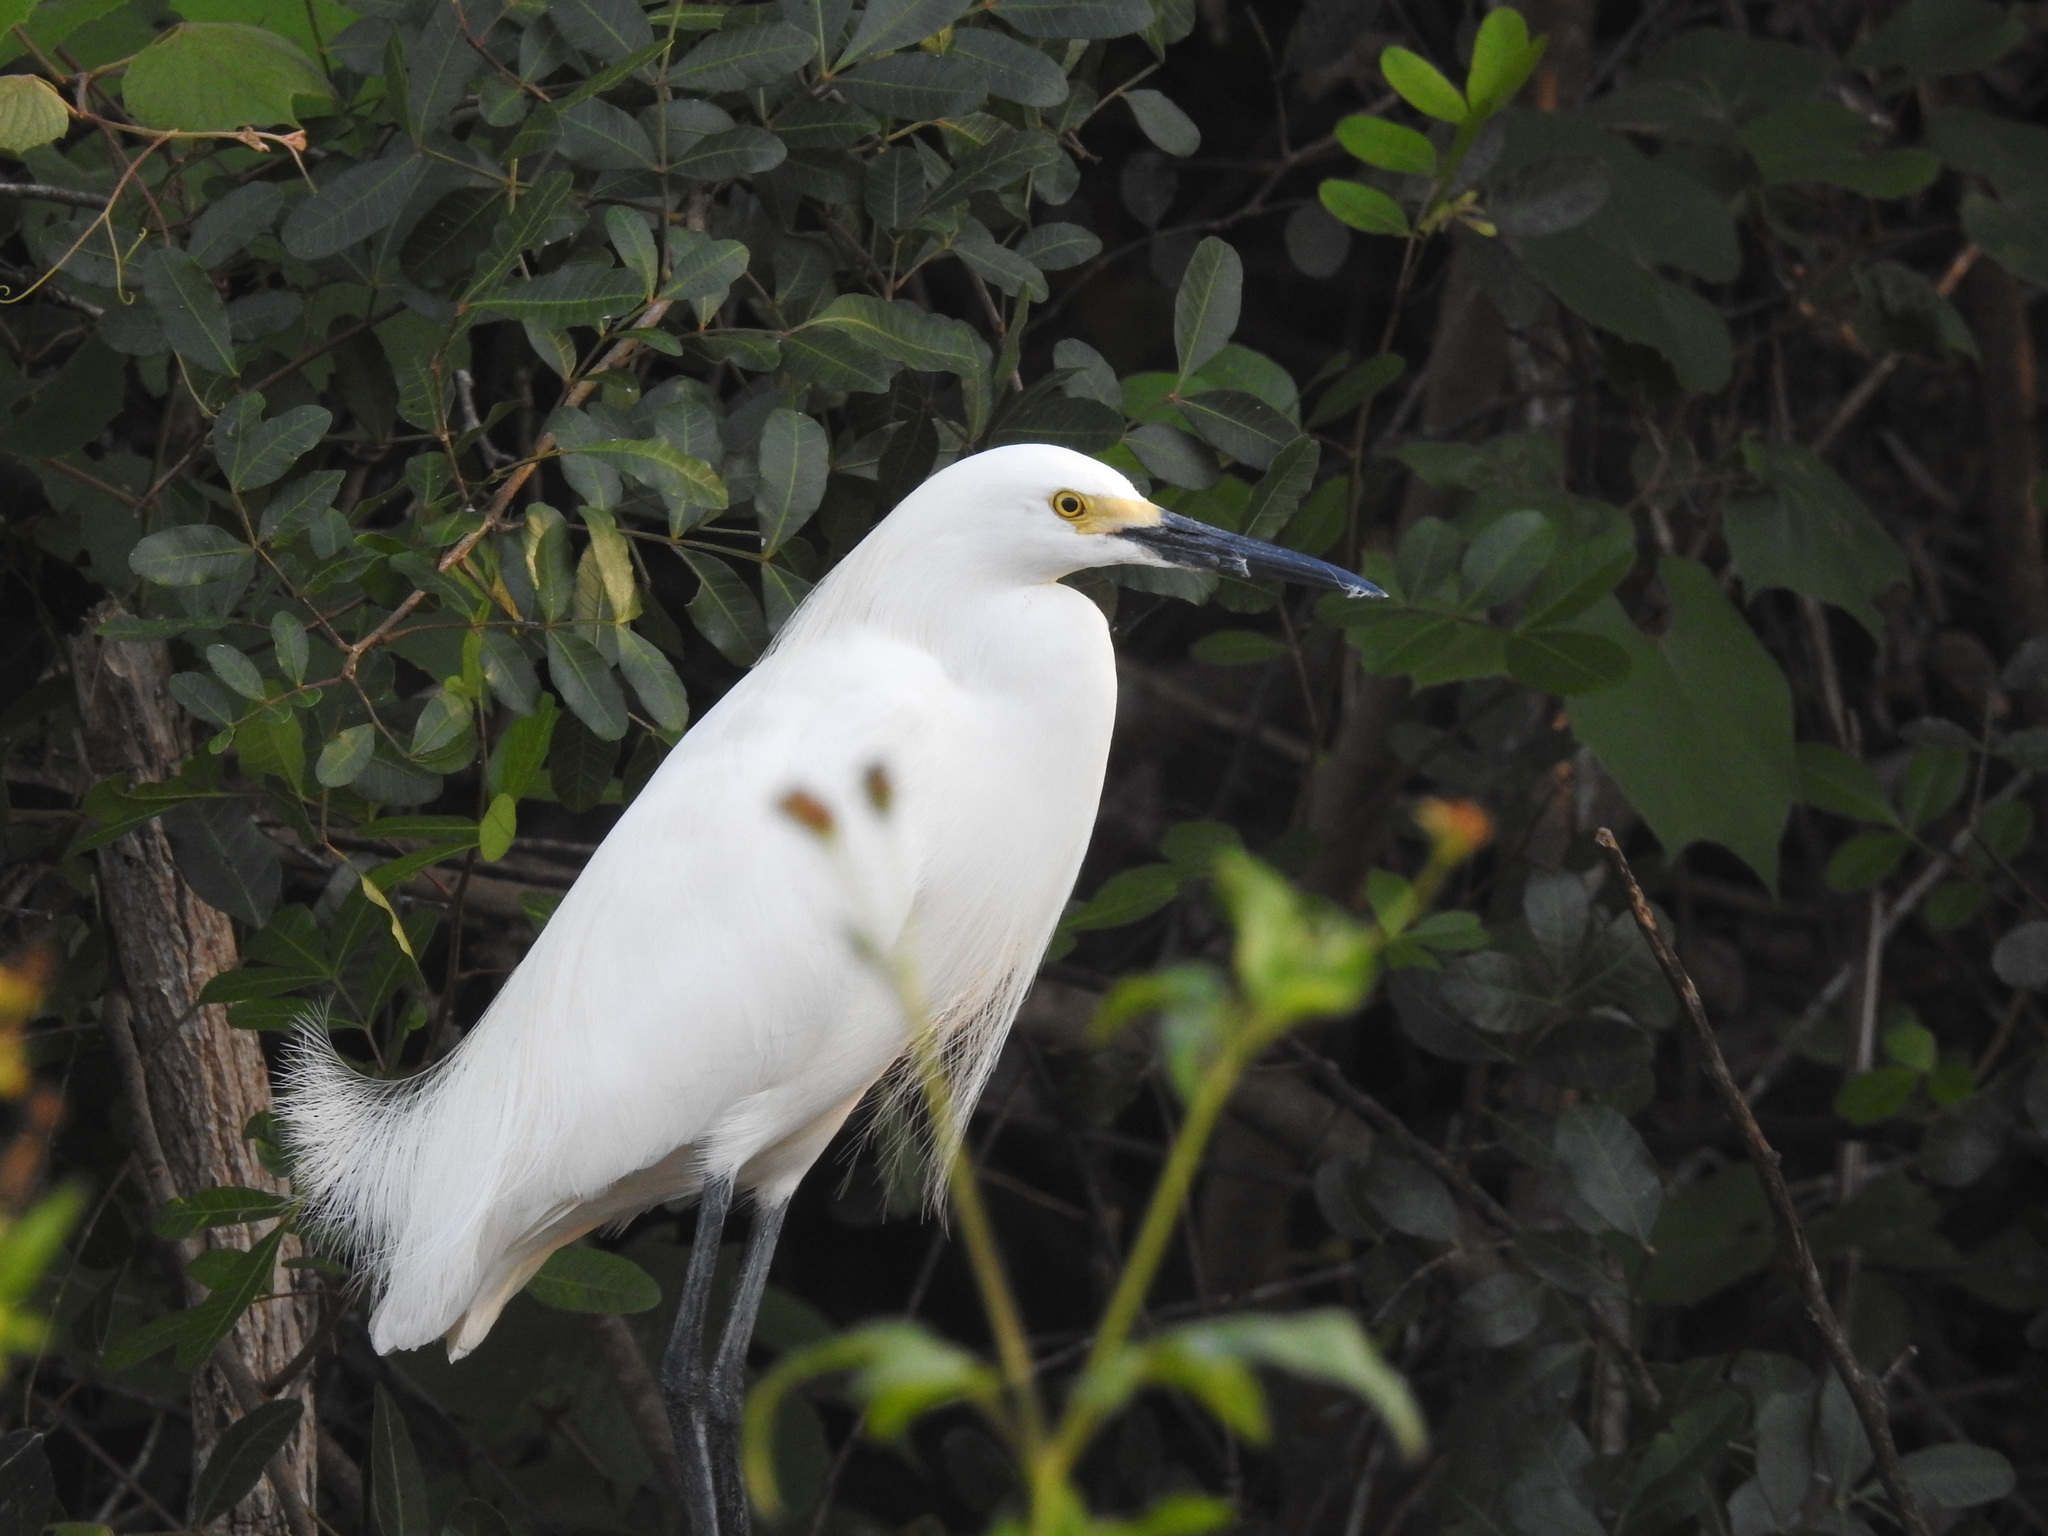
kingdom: Animalia
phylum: Chordata
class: Aves
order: Pelecaniformes
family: Ardeidae
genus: Egretta
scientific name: Egretta thula
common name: Snowy egret
